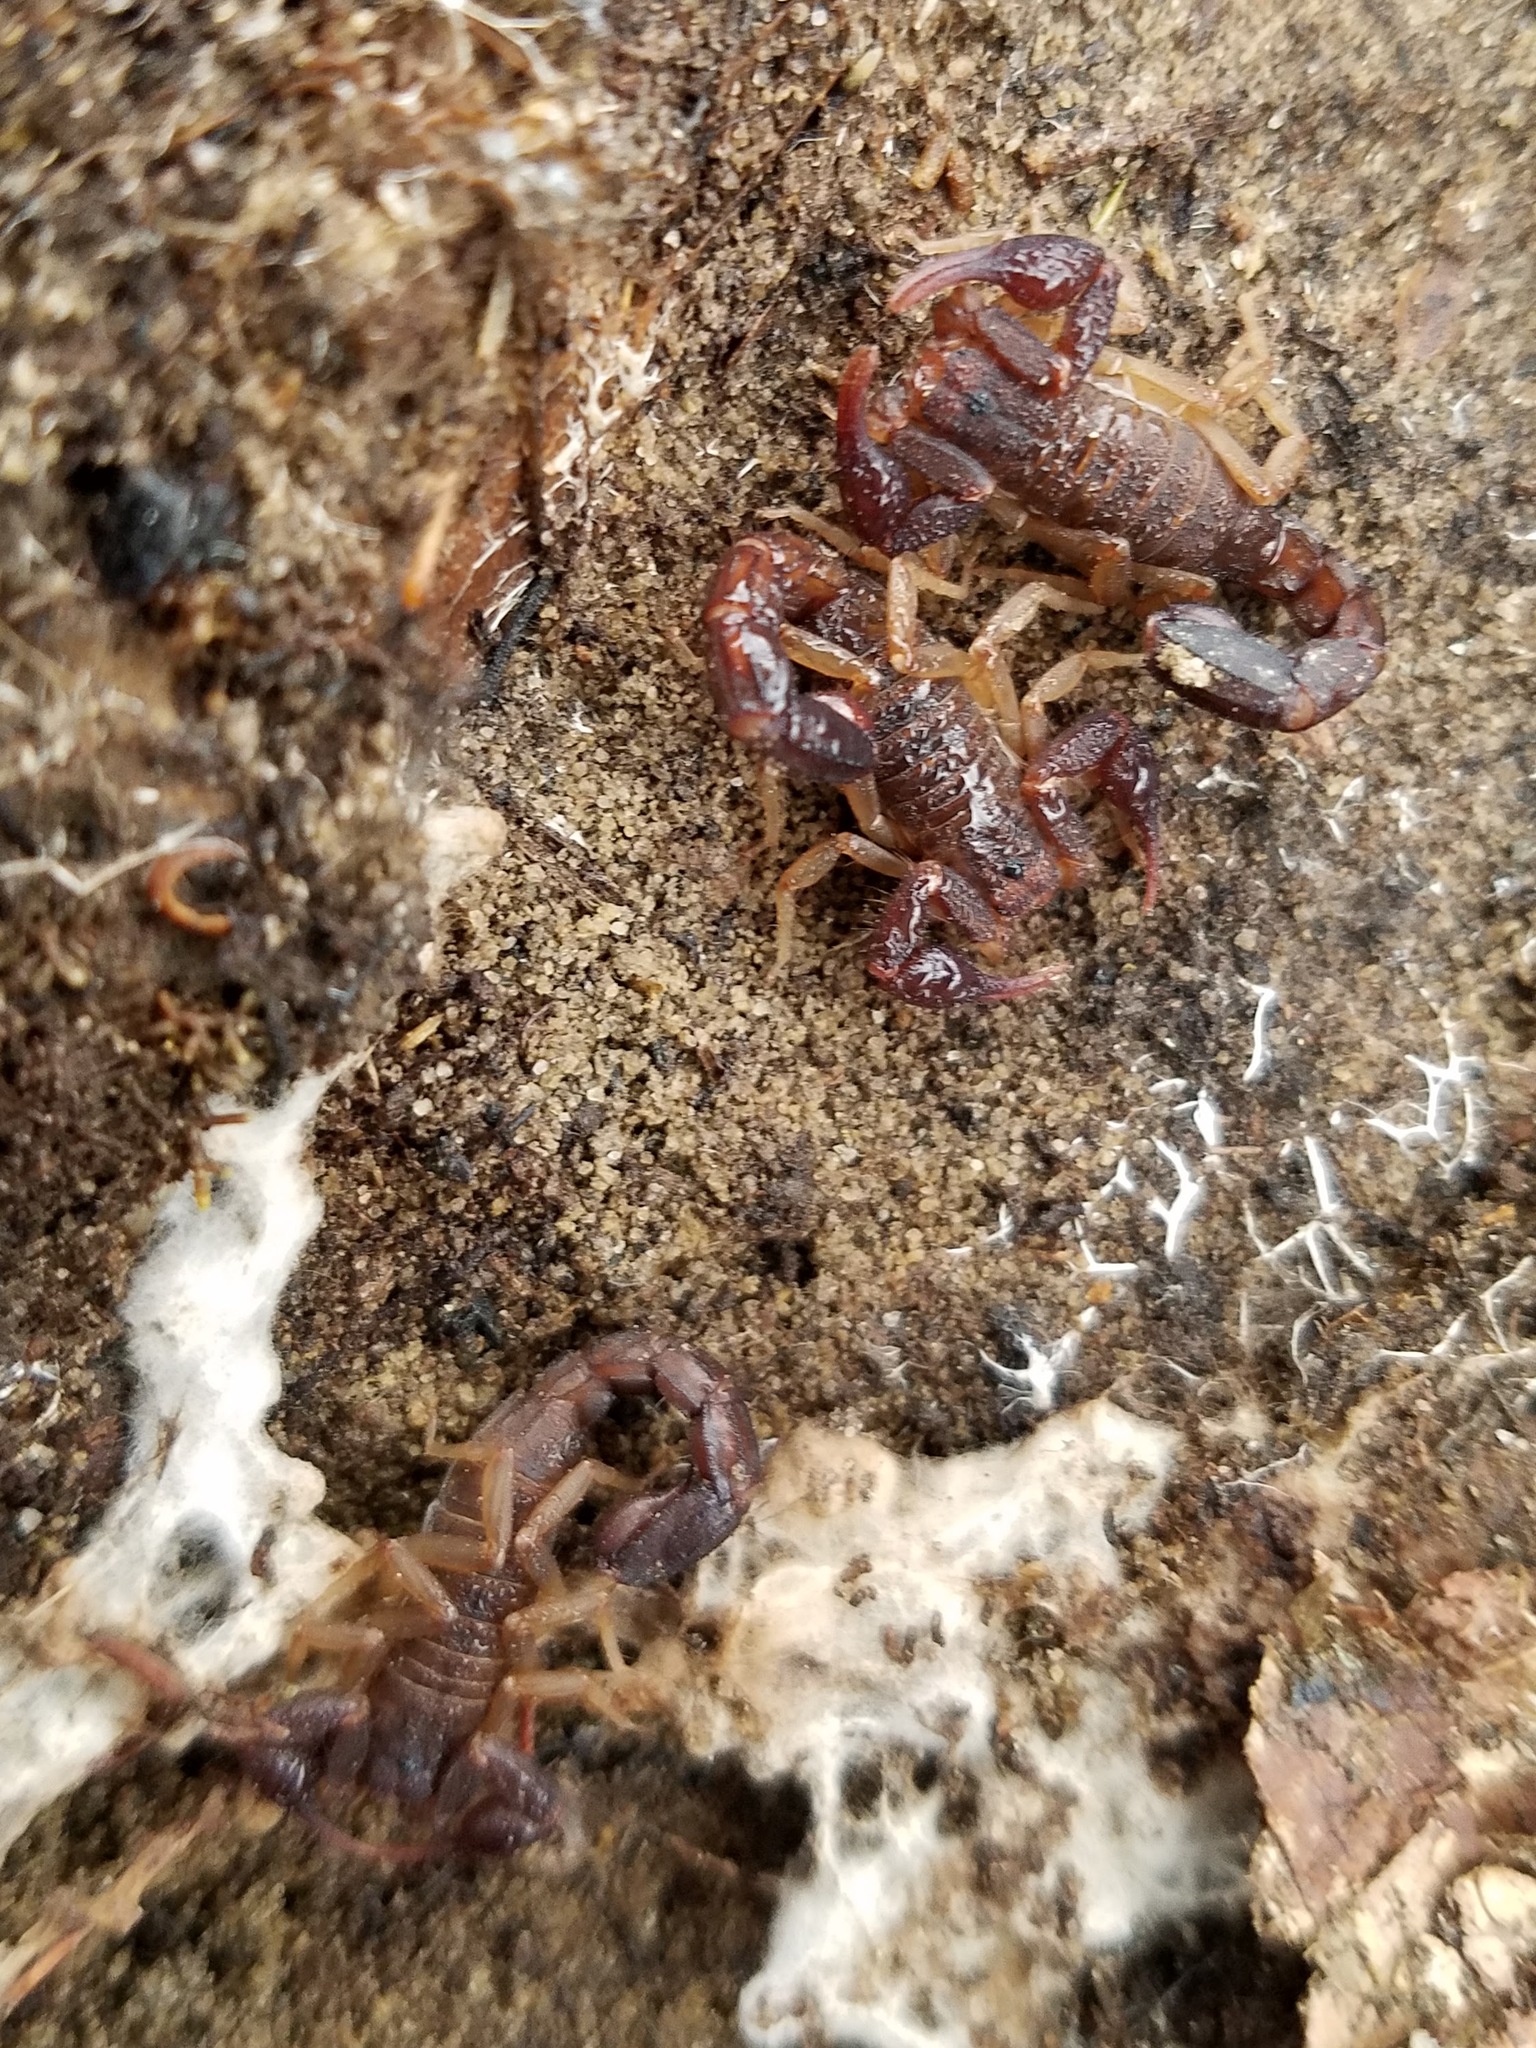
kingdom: Animalia
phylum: Arthropoda
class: Arachnida
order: Scorpiones
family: Vaejovidae
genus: Vaejovis
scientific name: Vaejovis carolinianus
